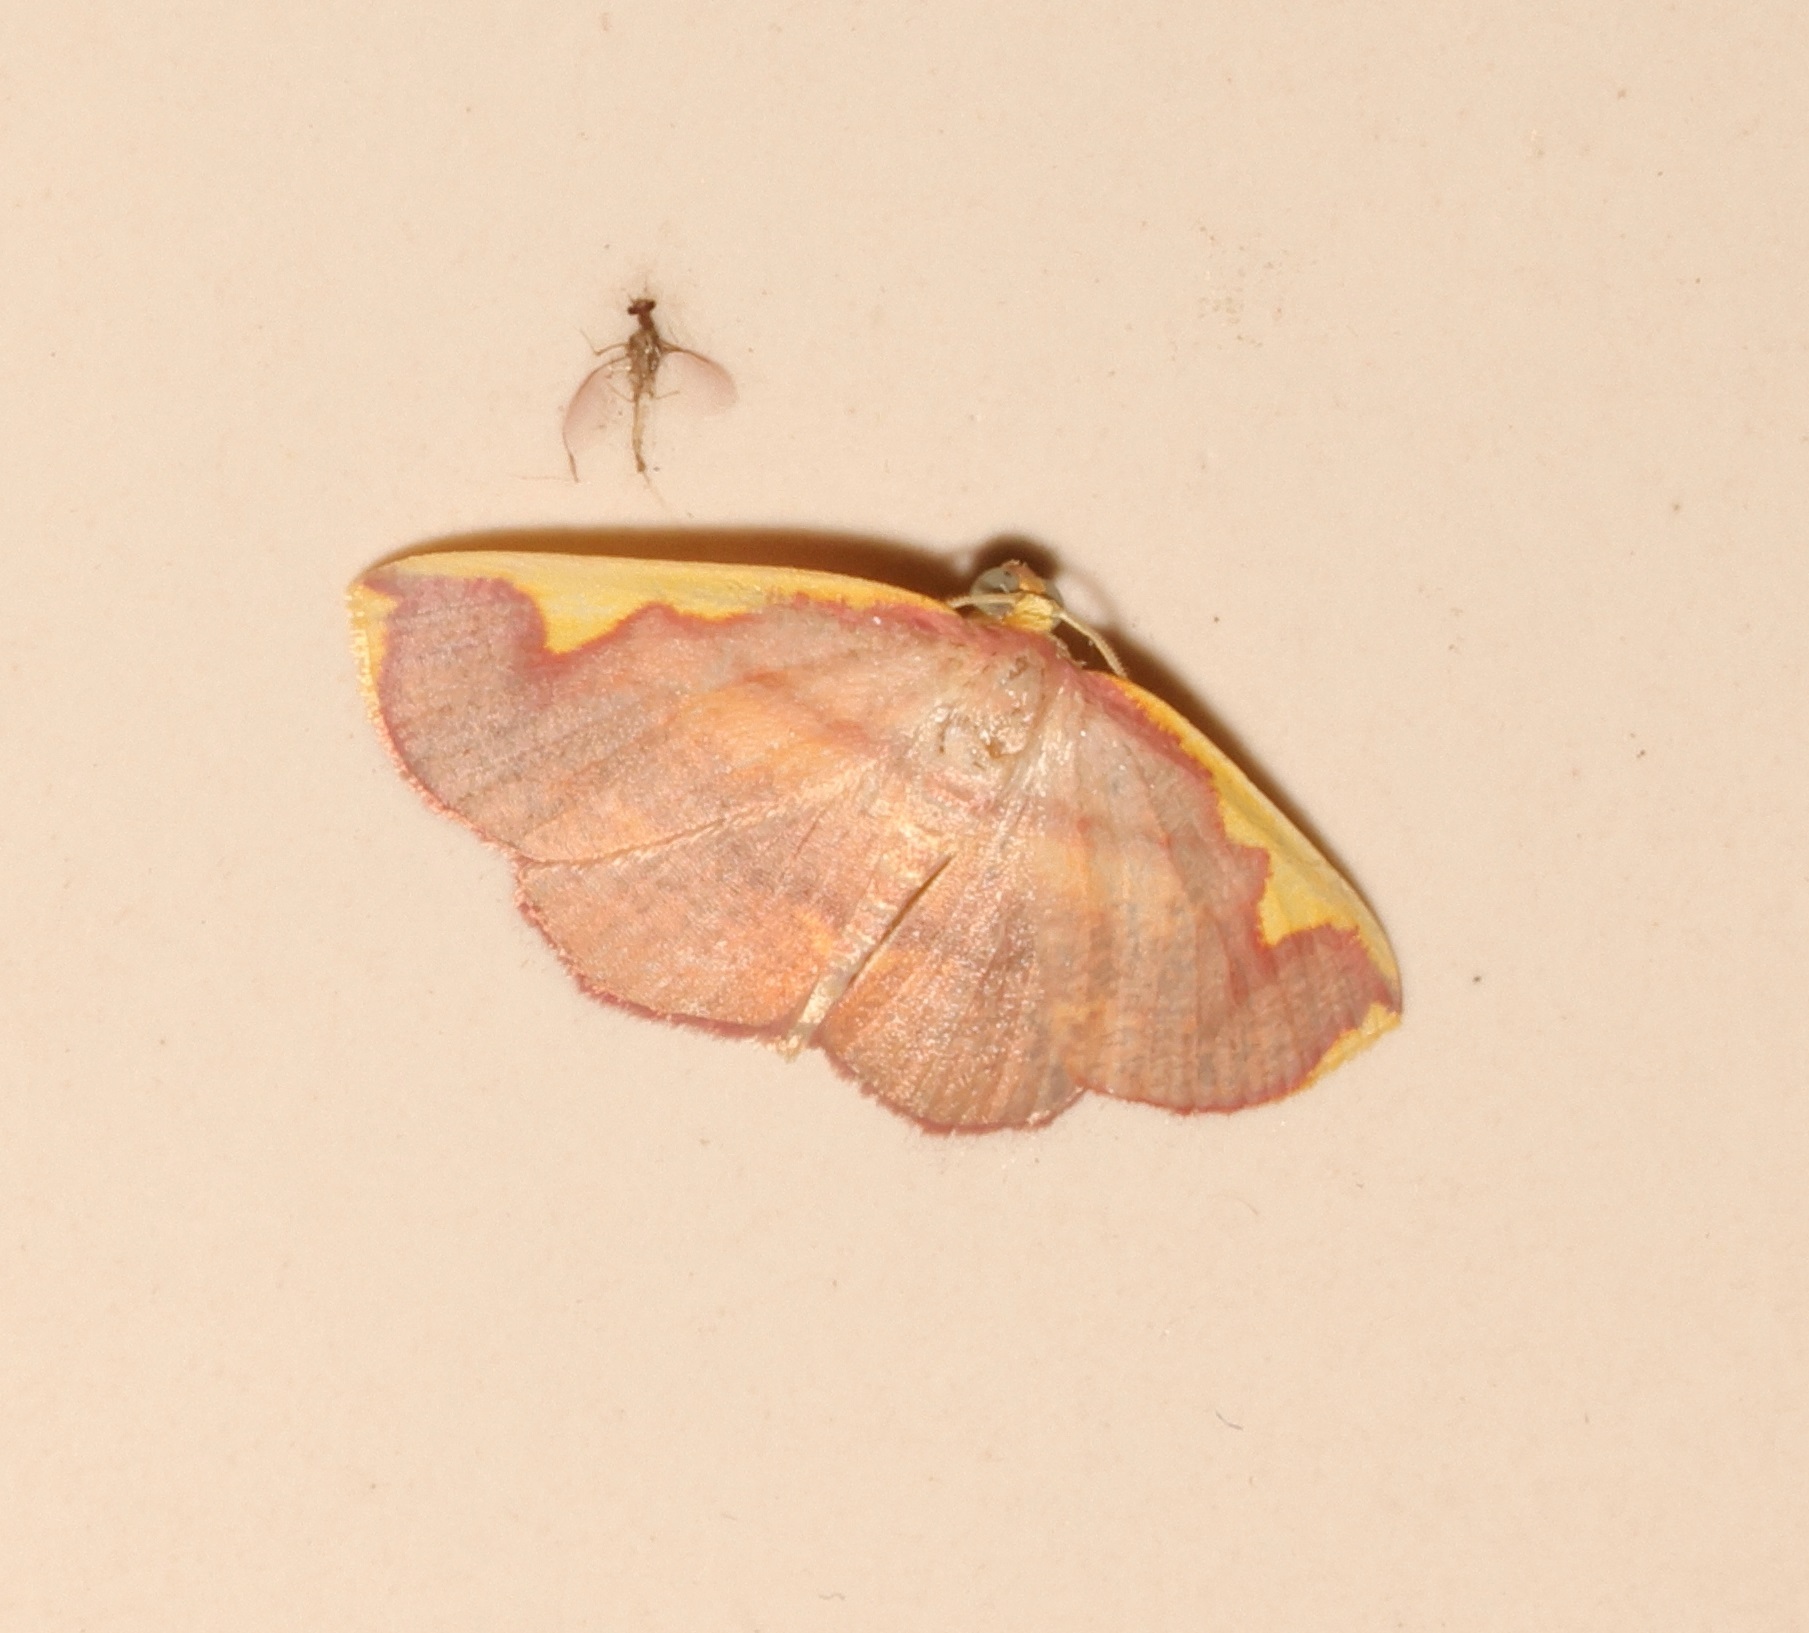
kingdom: Animalia
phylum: Arthropoda
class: Insecta
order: Lepidoptera
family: Geometridae
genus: Nothomiza
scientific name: Nothomiza flavicosta
